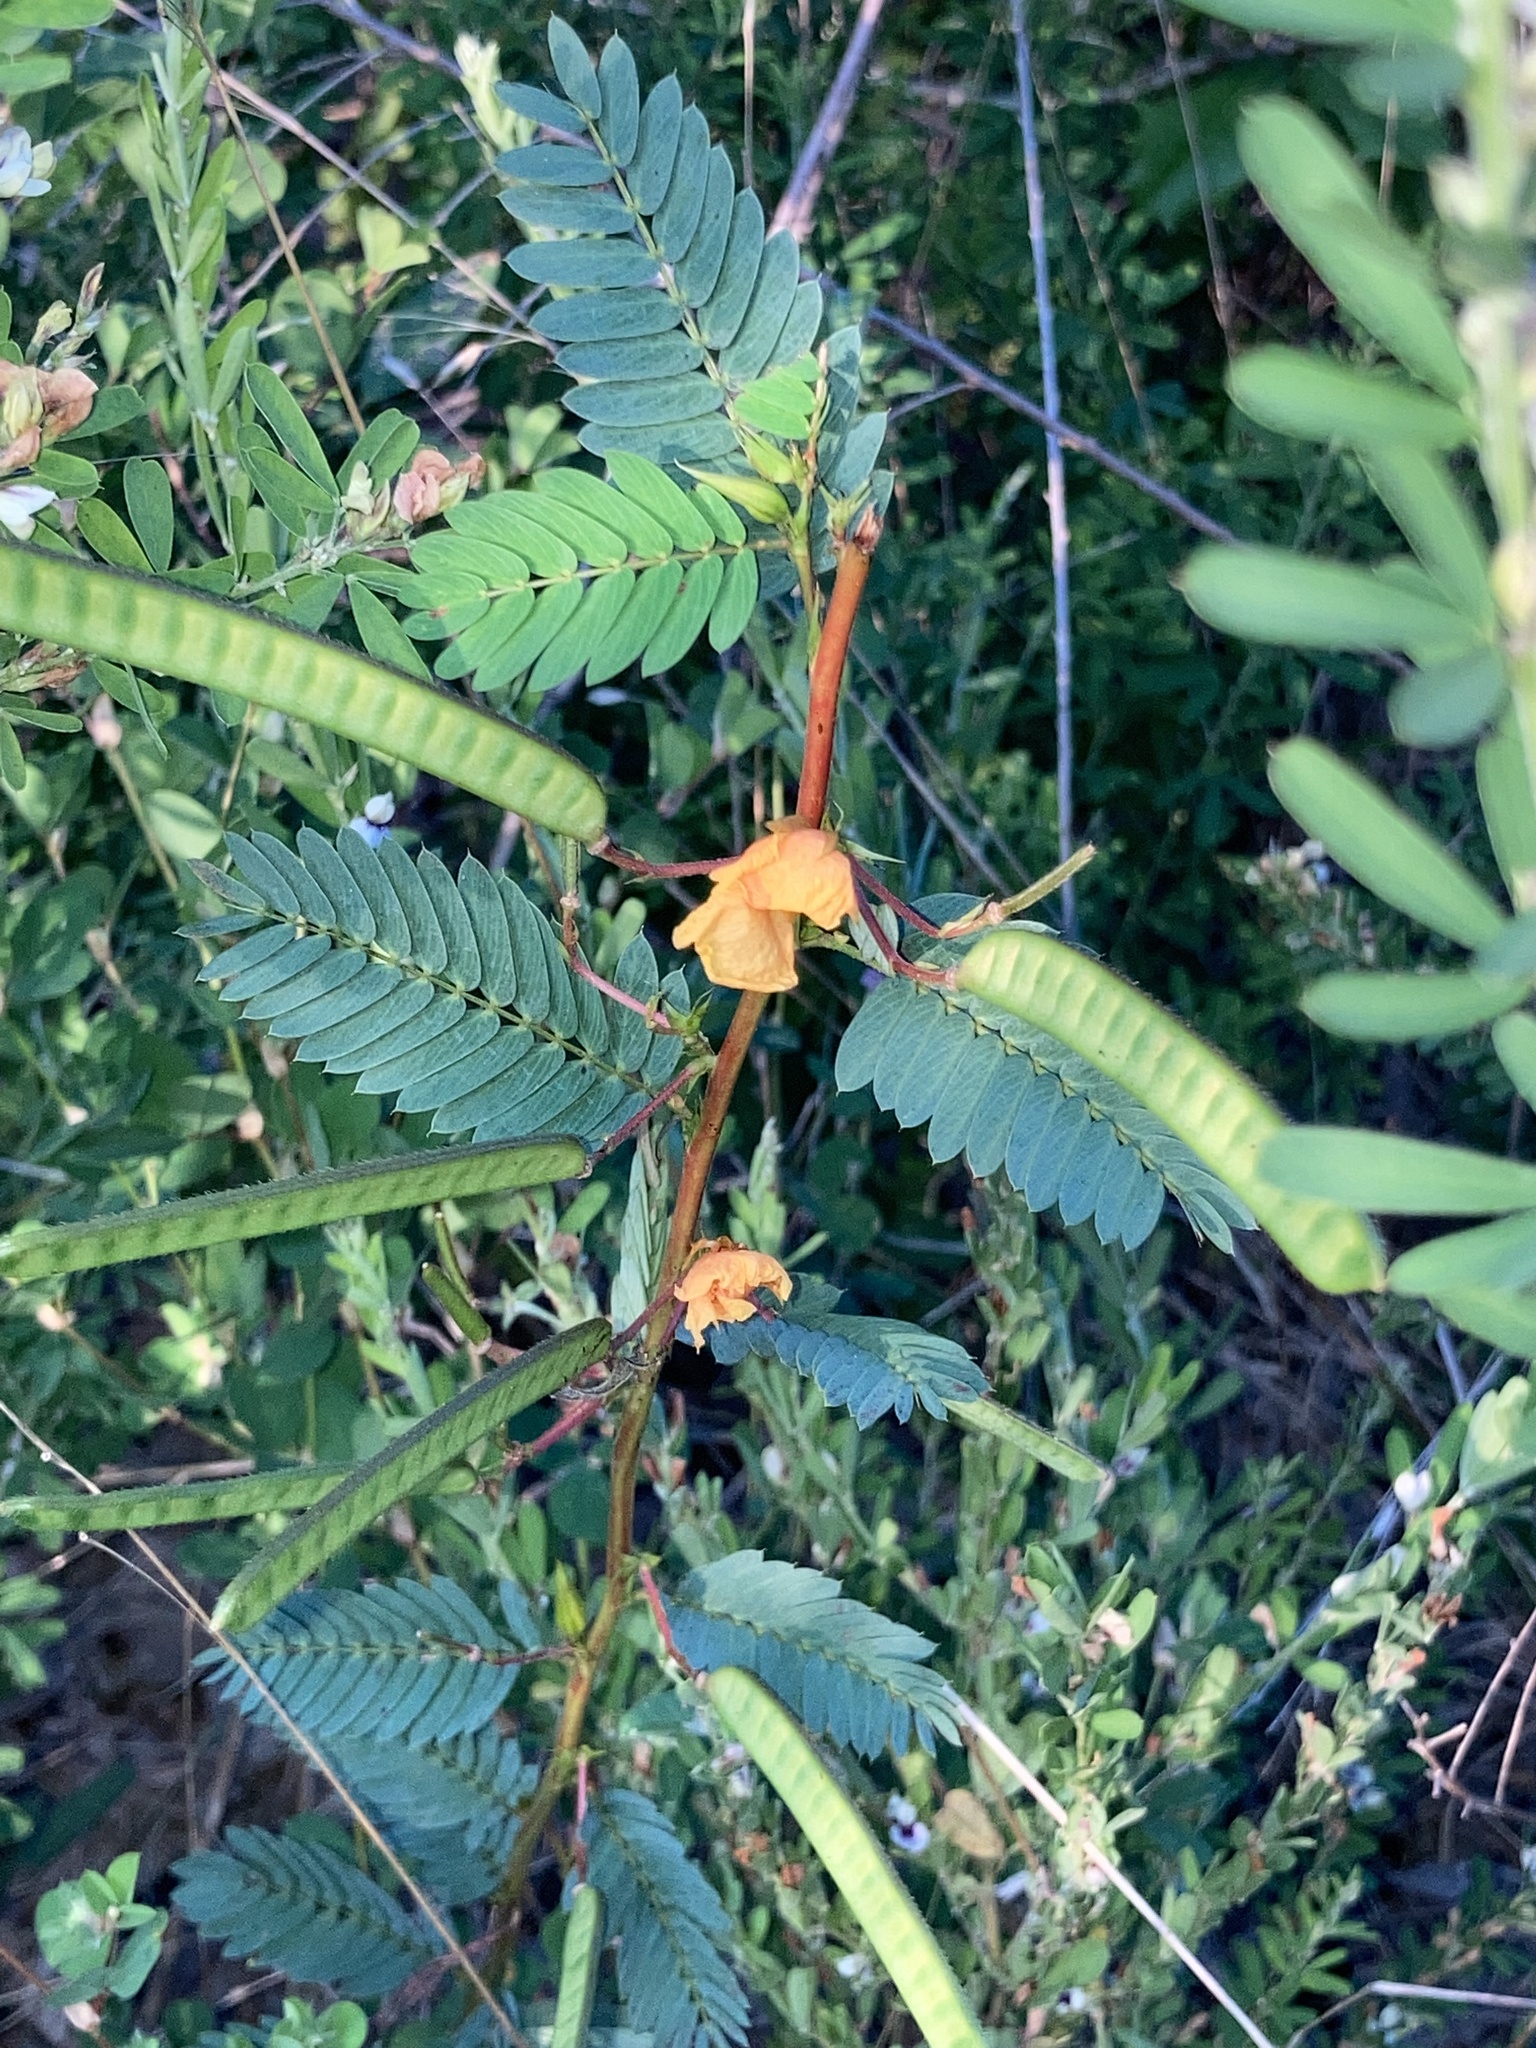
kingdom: Plantae
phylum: Tracheophyta
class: Magnoliopsida
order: Fabales
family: Fabaceae
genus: Chamaecrista
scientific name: Chamaecrista fasciculata
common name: Golden cassia
